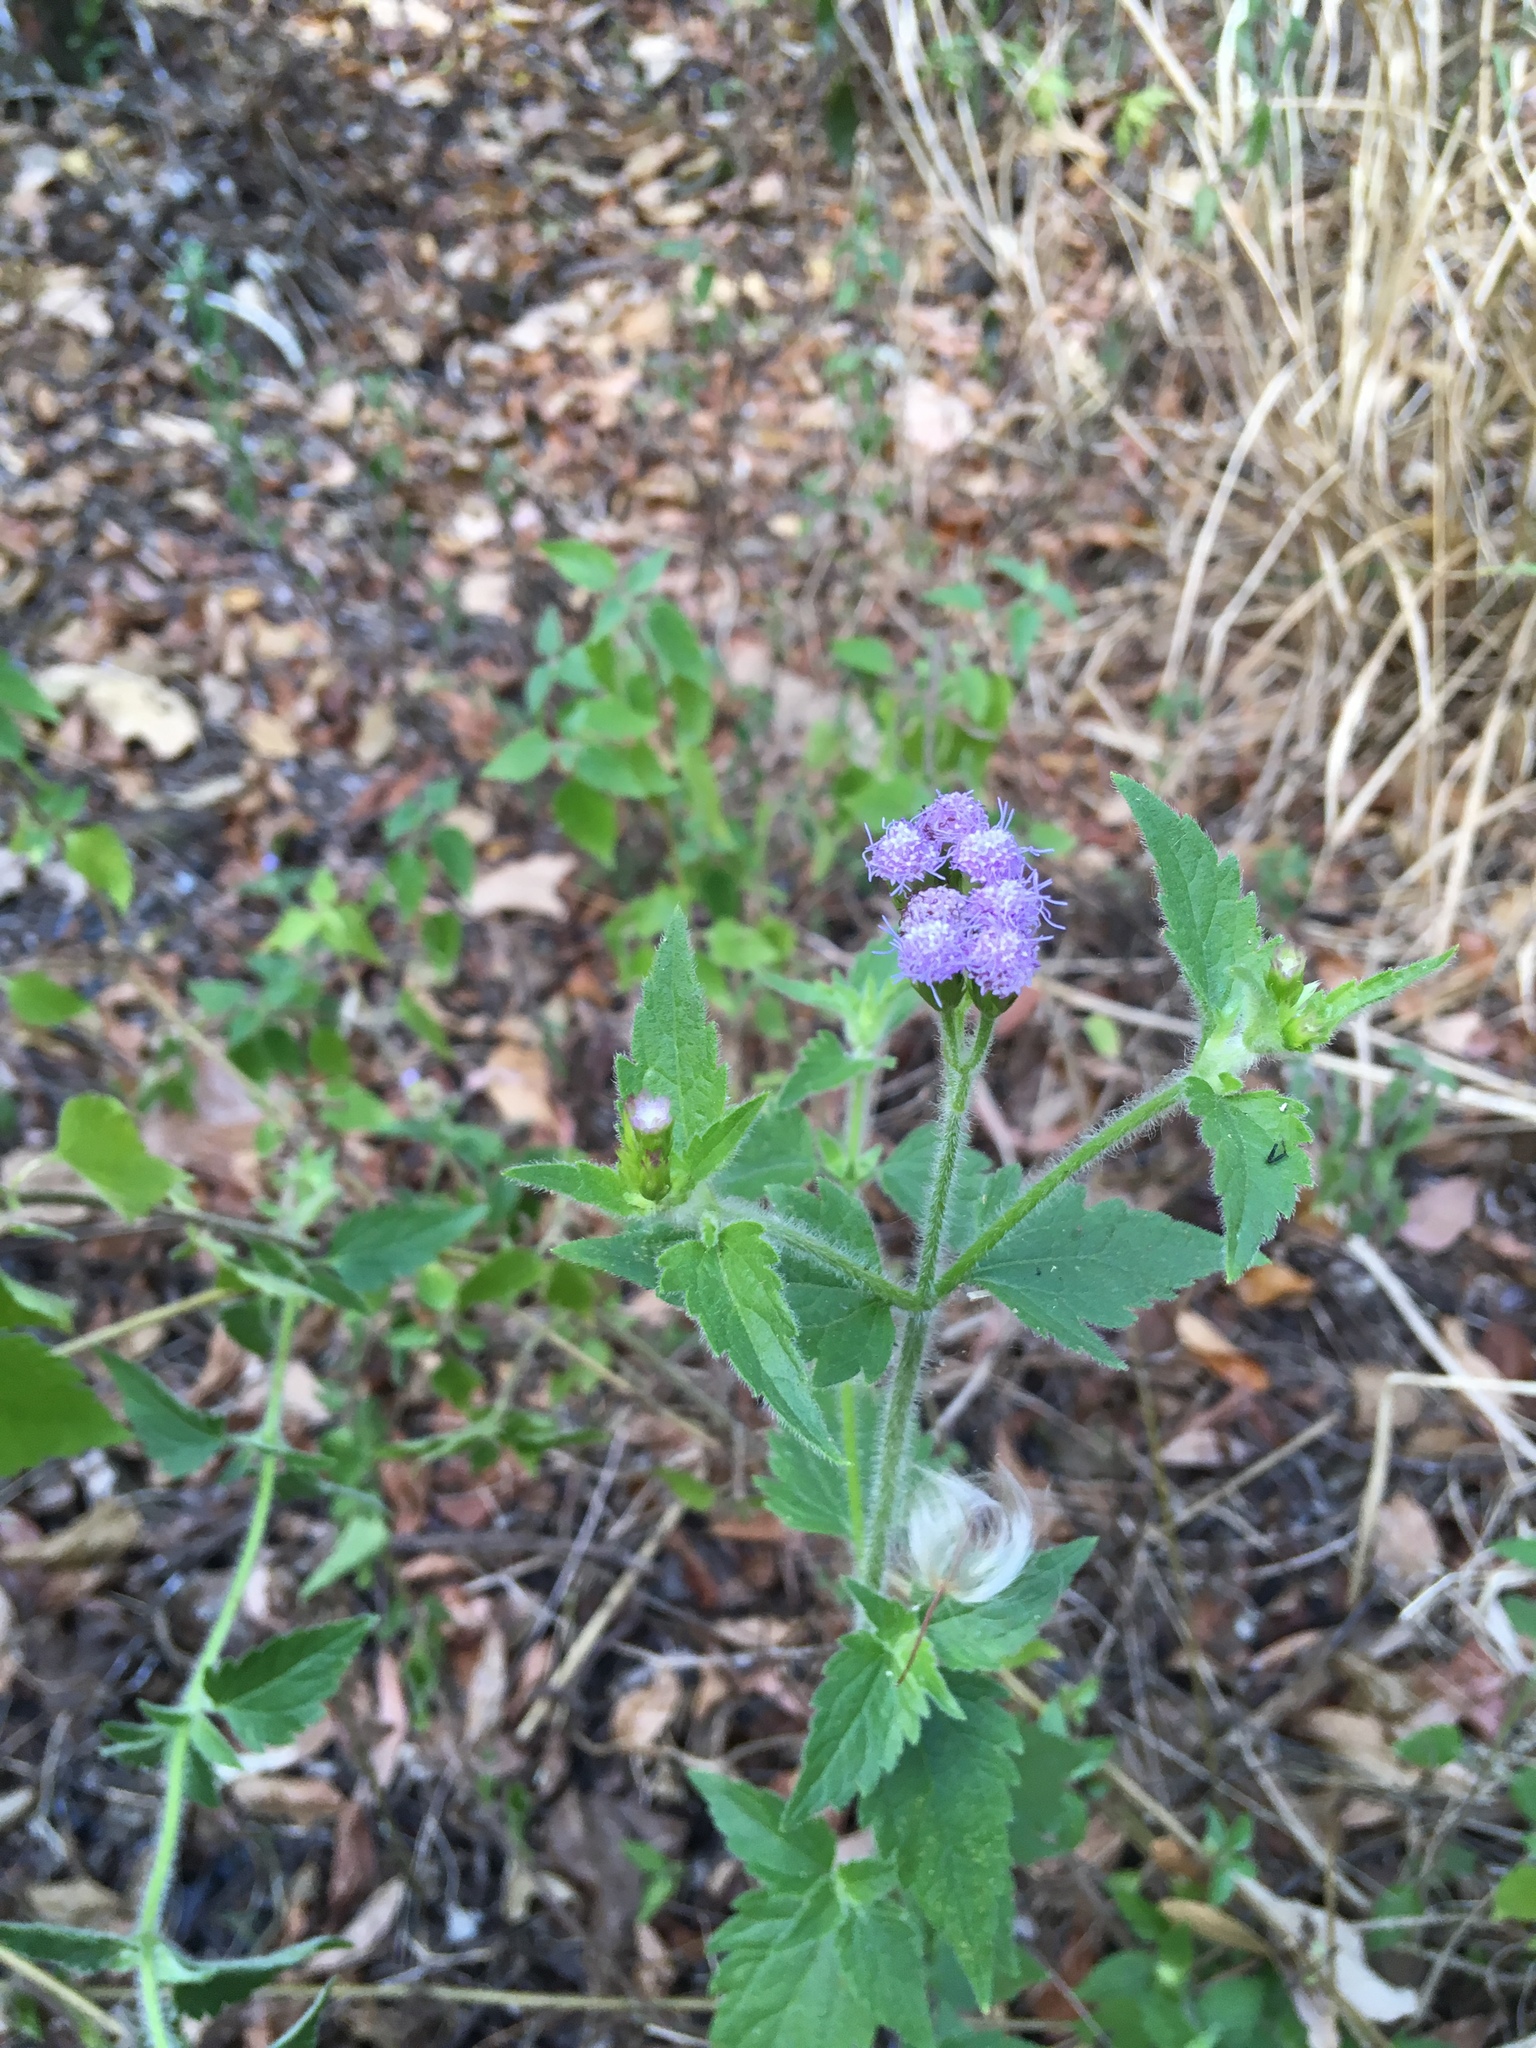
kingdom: Plantae
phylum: Tracheophyta
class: Magnoliopsida
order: Asterales
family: Asteraceae
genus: Praxelis
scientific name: Praxelis clematidea
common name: Praxelis
